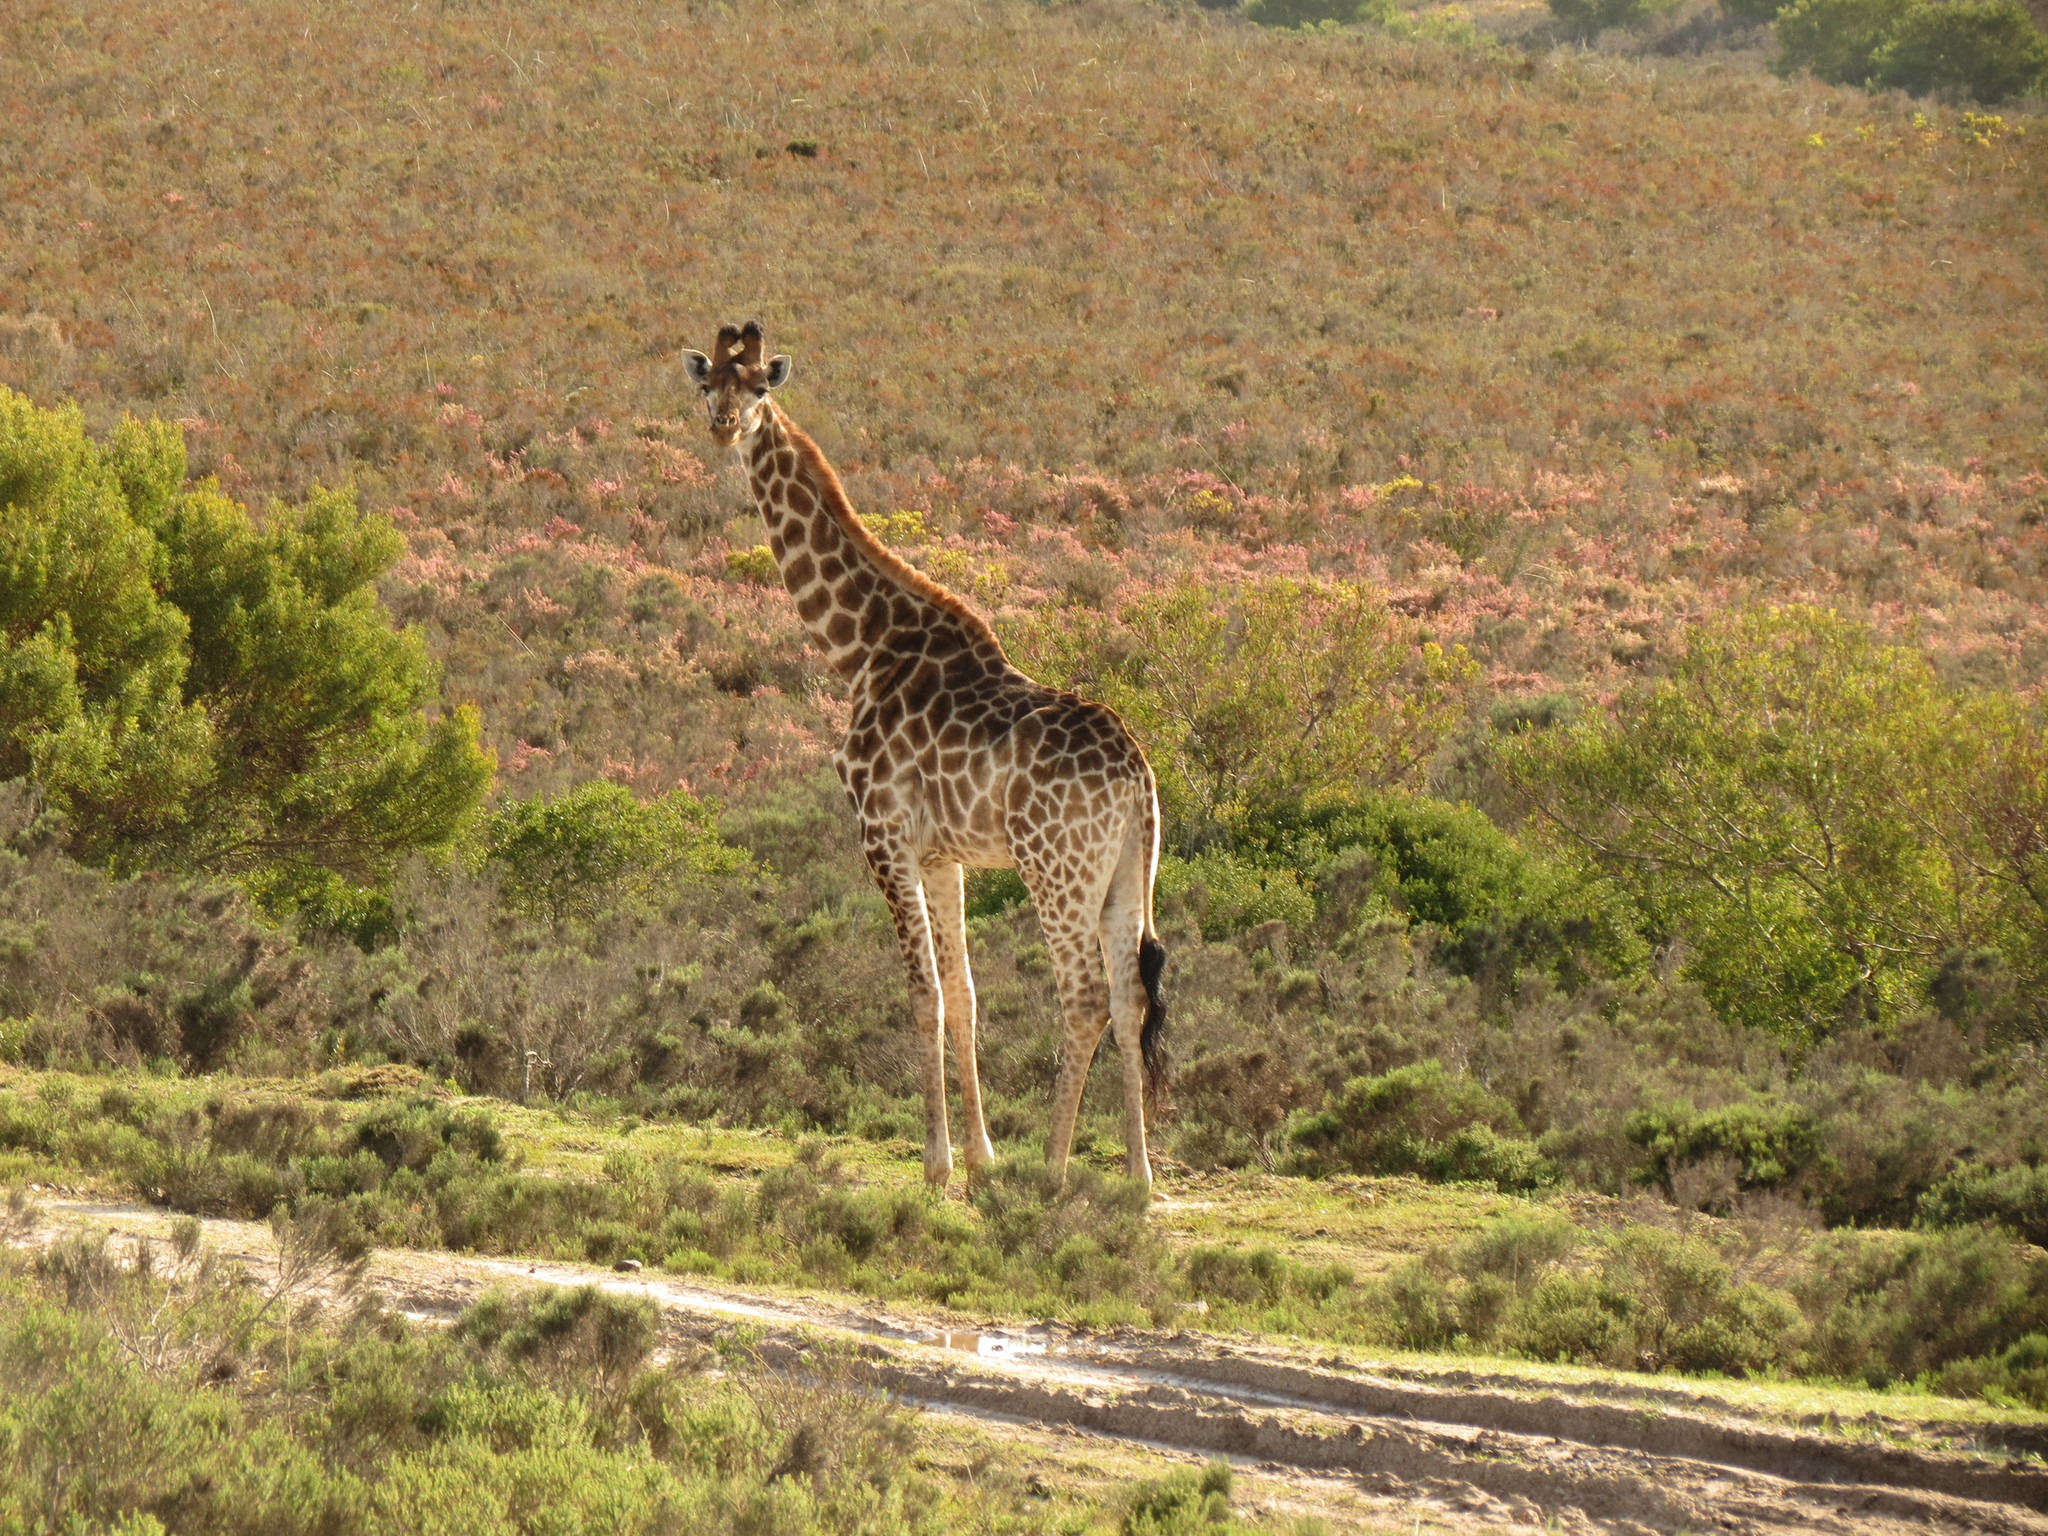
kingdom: Animalia
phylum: Chordata
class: Mammalia
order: Artiodactyla
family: Giraffidae
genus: Giraffa
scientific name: Giraffa giraffa
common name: Southern giraffe
